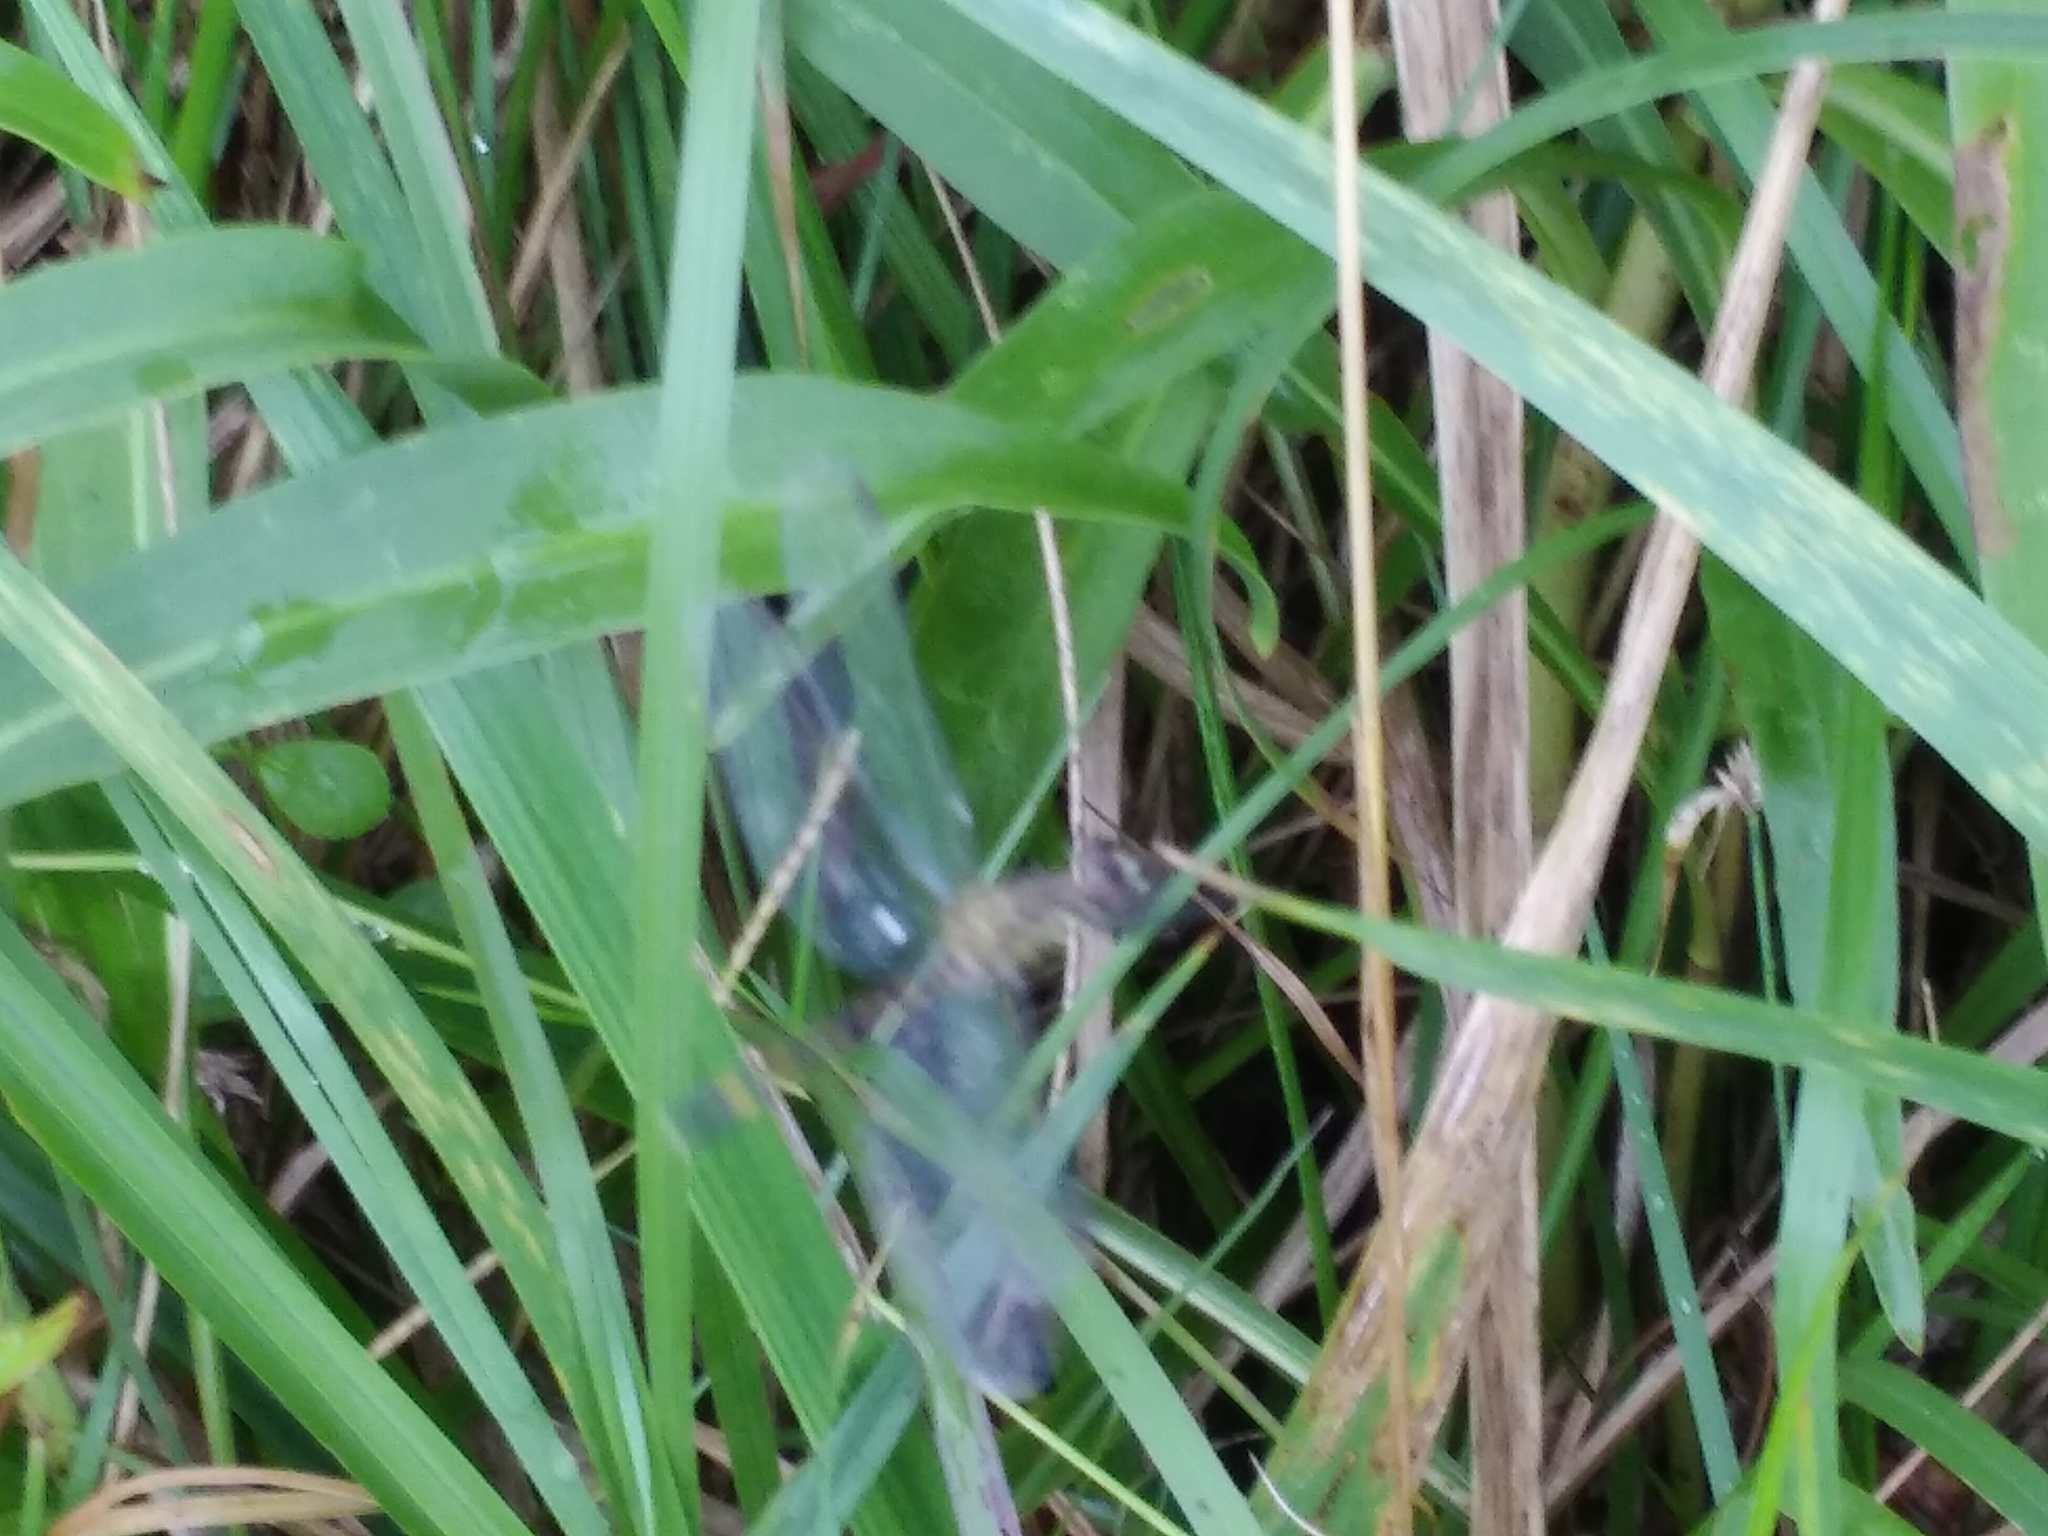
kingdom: Animalia
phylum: Arthropoda
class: Insecta
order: Odonata
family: Libellulidae
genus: Erythrodiplax
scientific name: Erythrodiplax berenice
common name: Seaside dragonlet
